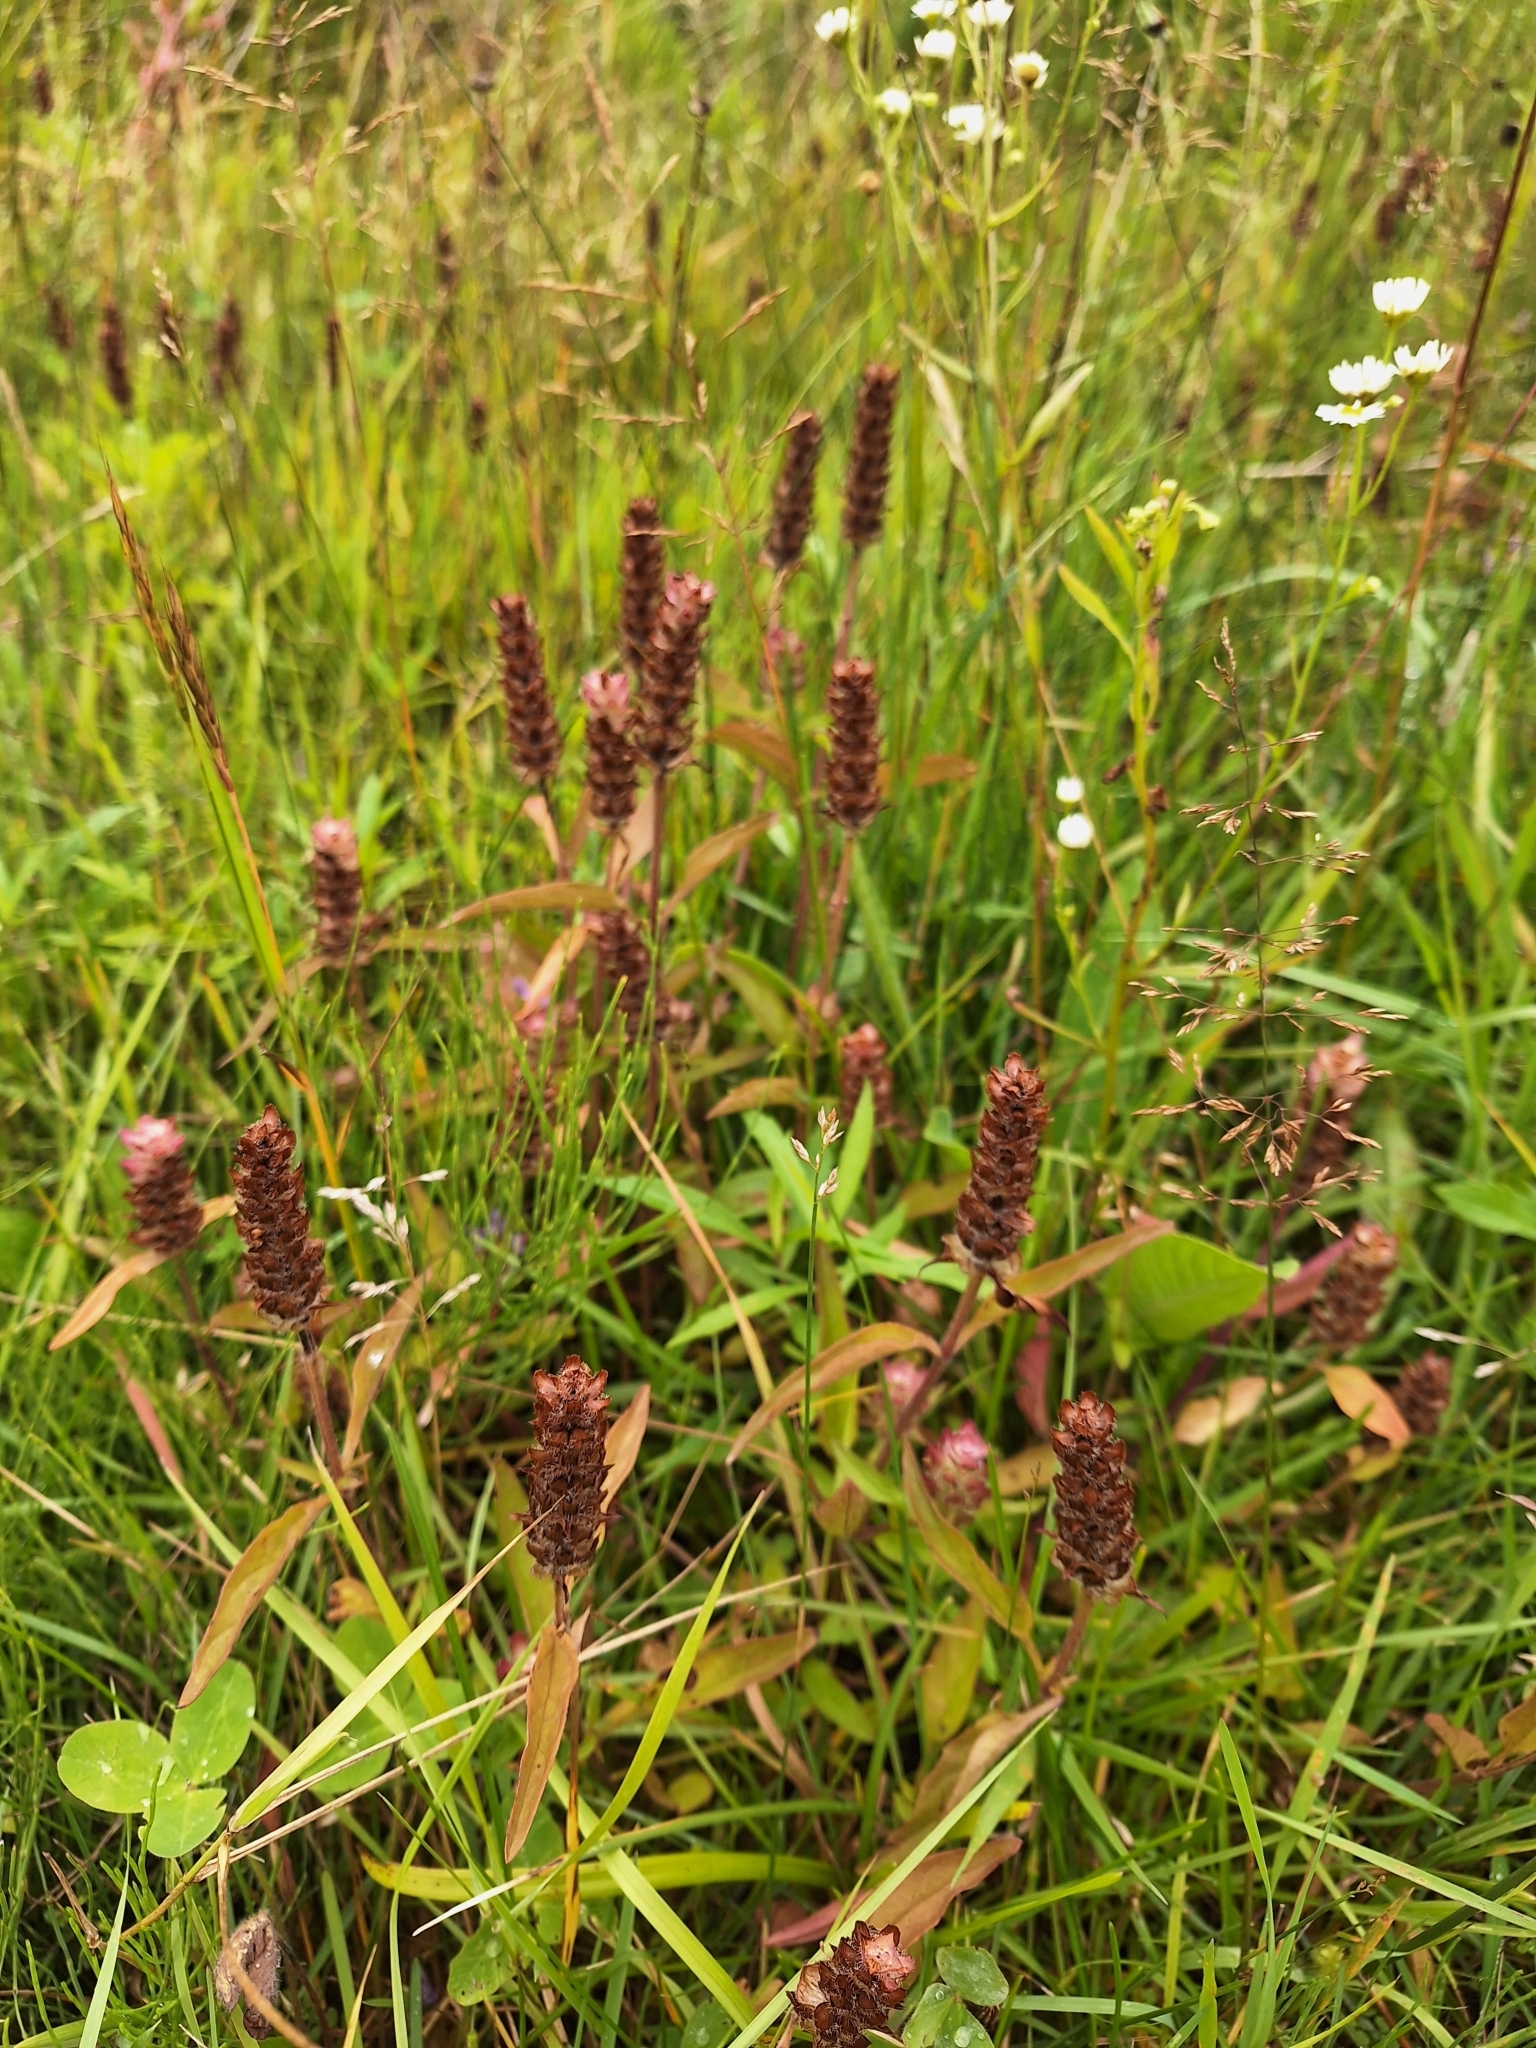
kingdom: Plantae
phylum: Tracheophyta
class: Magnoliopsida
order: Lamiales
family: Lamiaceae
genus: Prunella
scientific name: Prunella vulgaris
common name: Heal-all
